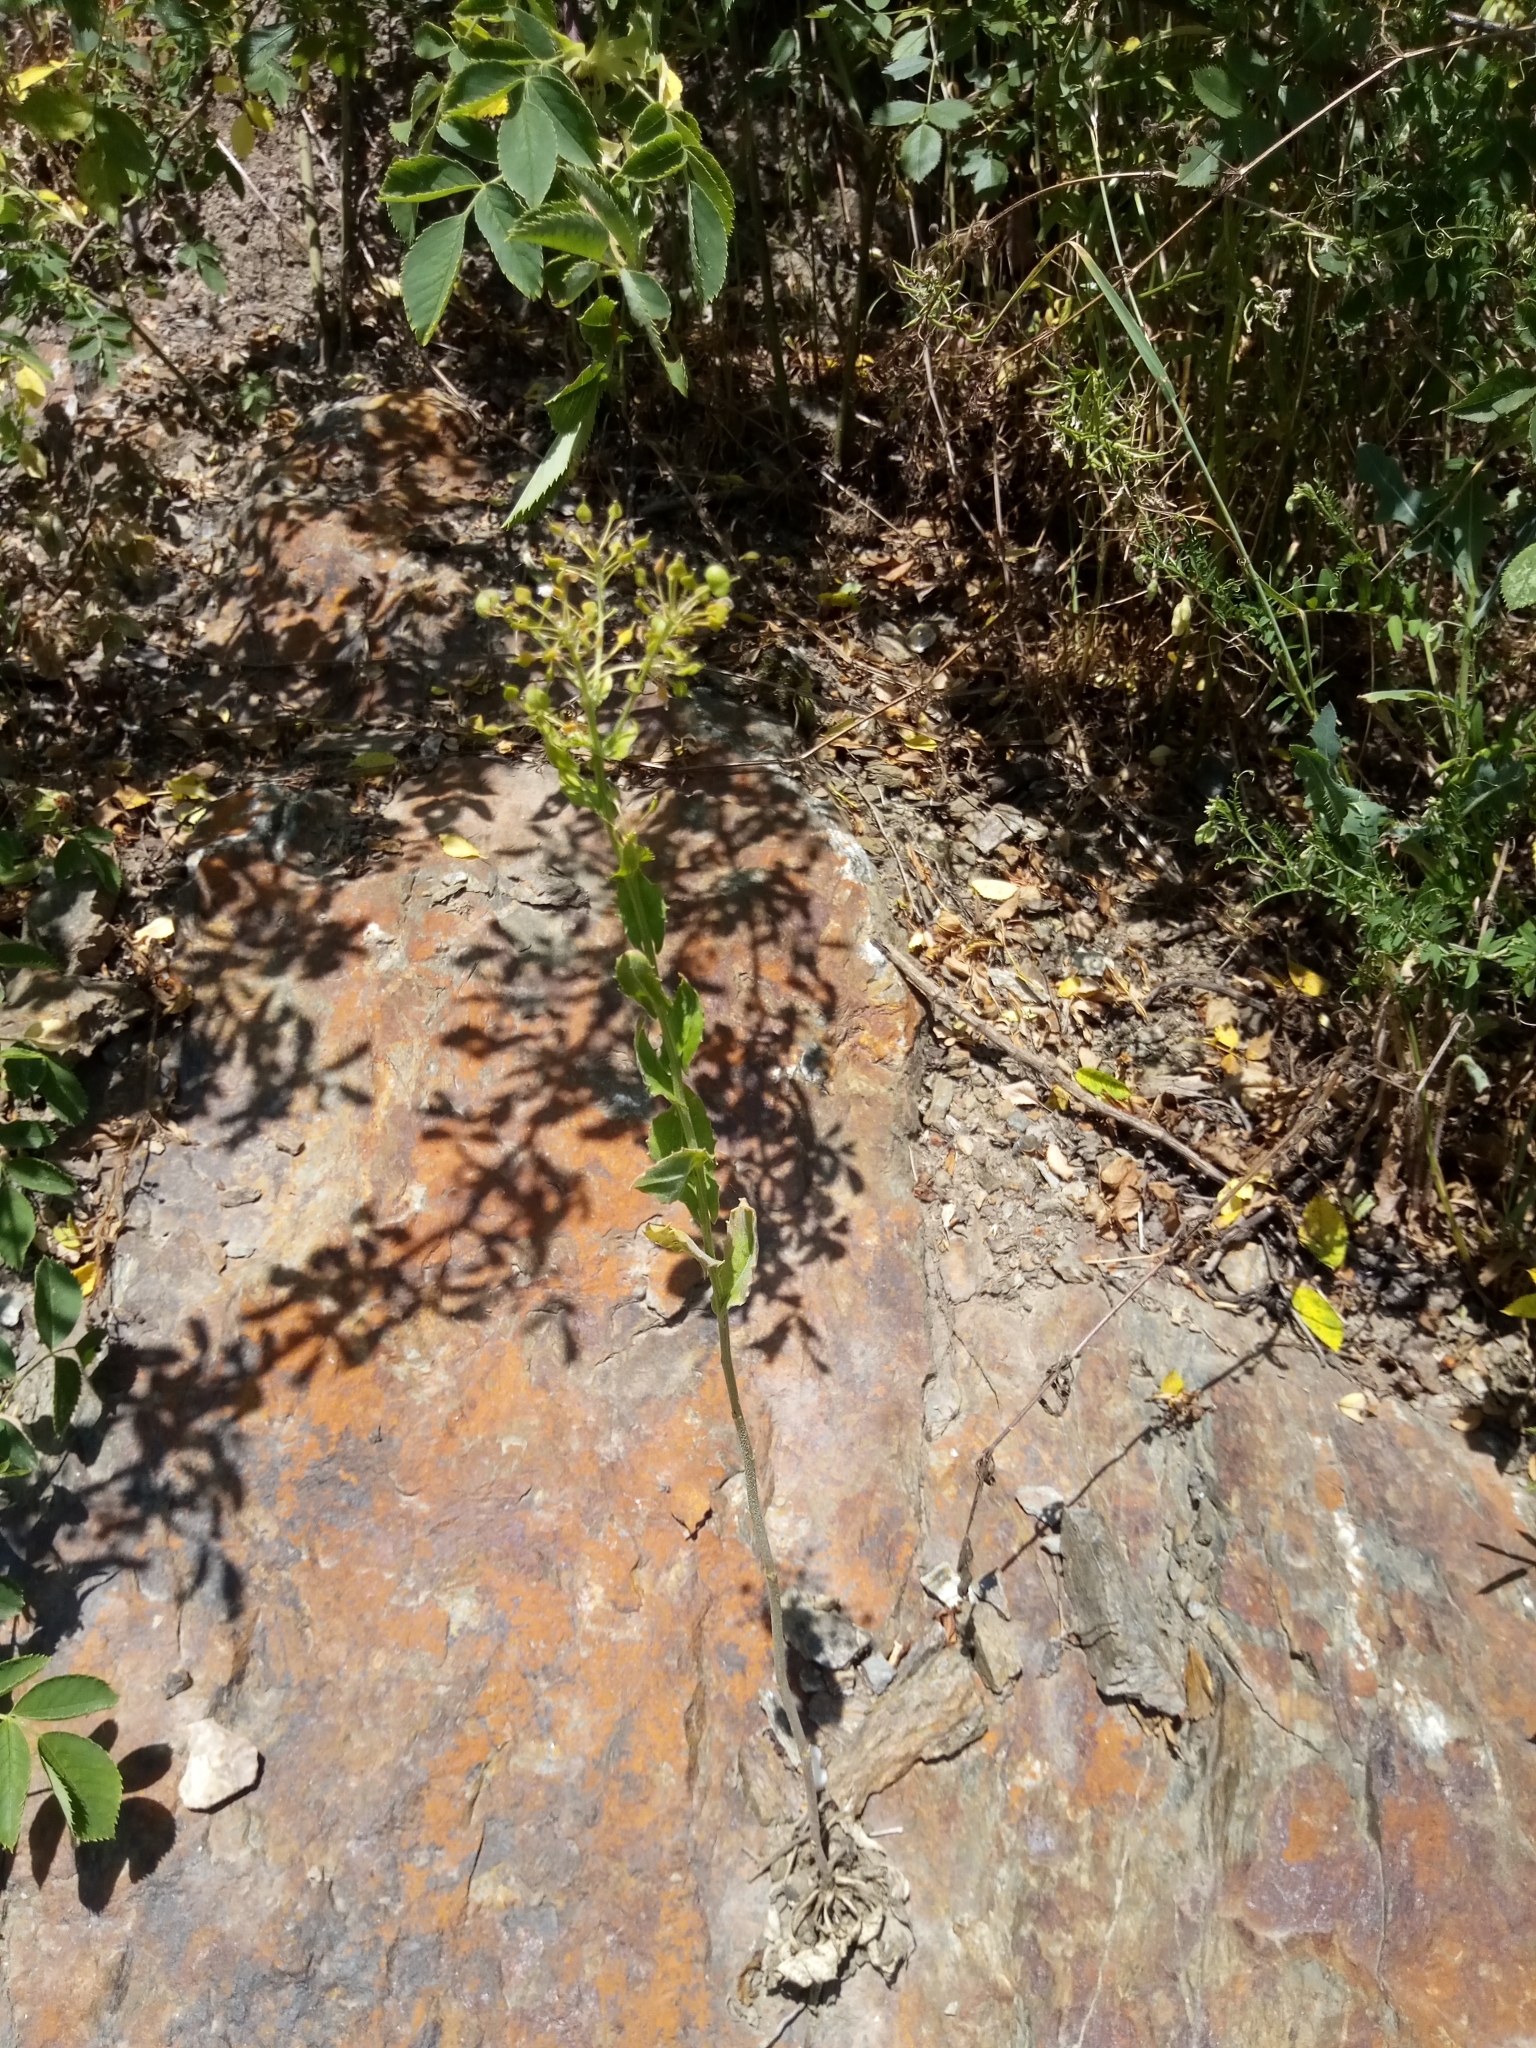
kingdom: Plantae
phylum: Tracheophyta
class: Magnoliopsida
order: Brassicales
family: Brassicaceae
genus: Lepidium
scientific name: Lepidium draba
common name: Hoary cress
